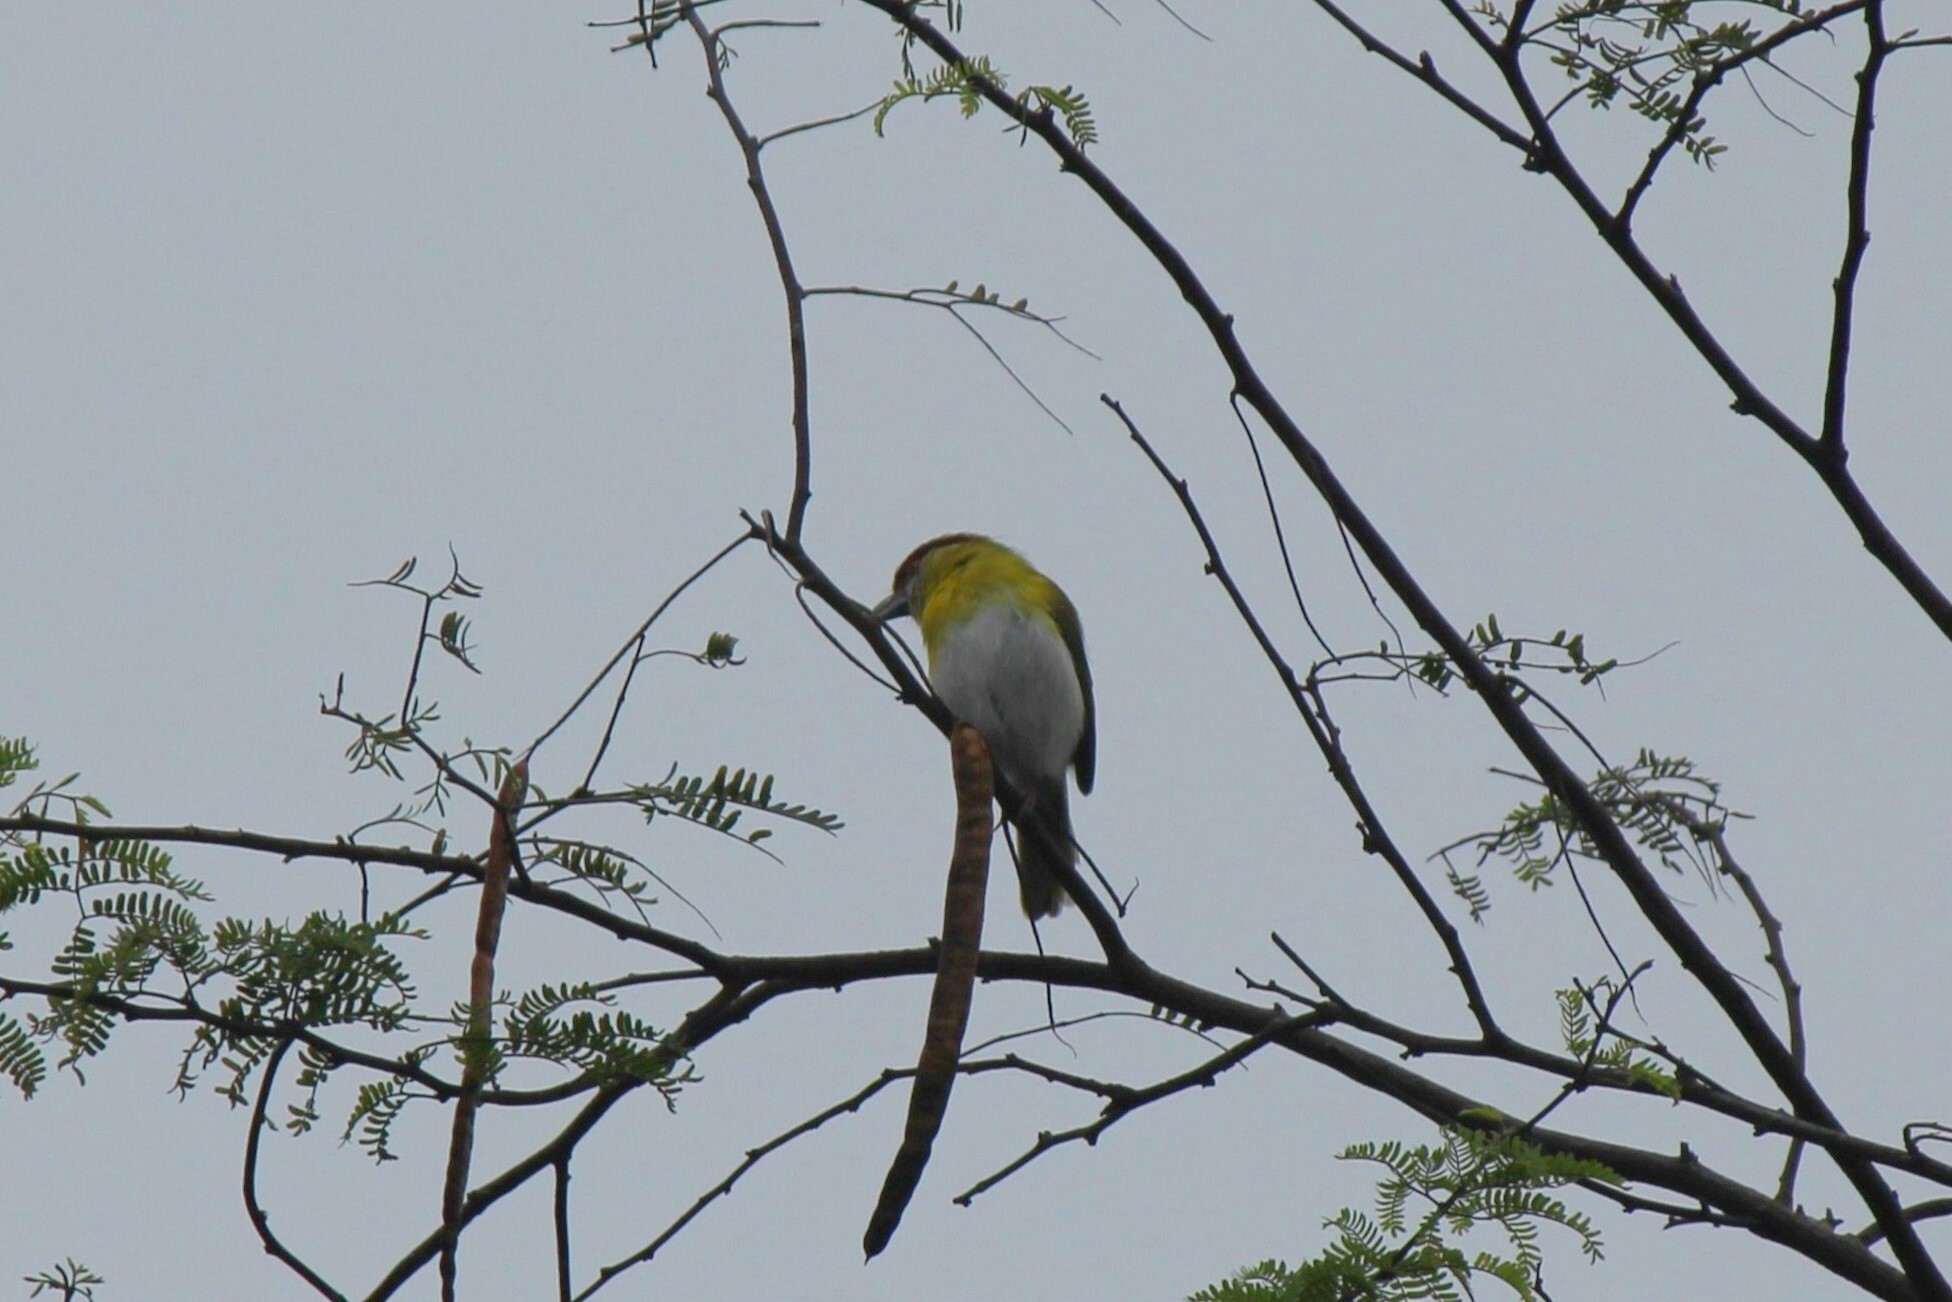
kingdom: Animalia
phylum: Chordata
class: Aves
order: Passeriformes
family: Vireonidae
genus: Cyclarhis
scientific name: Cyclarhis gujanensis
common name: Rufous-browed peppershrike
